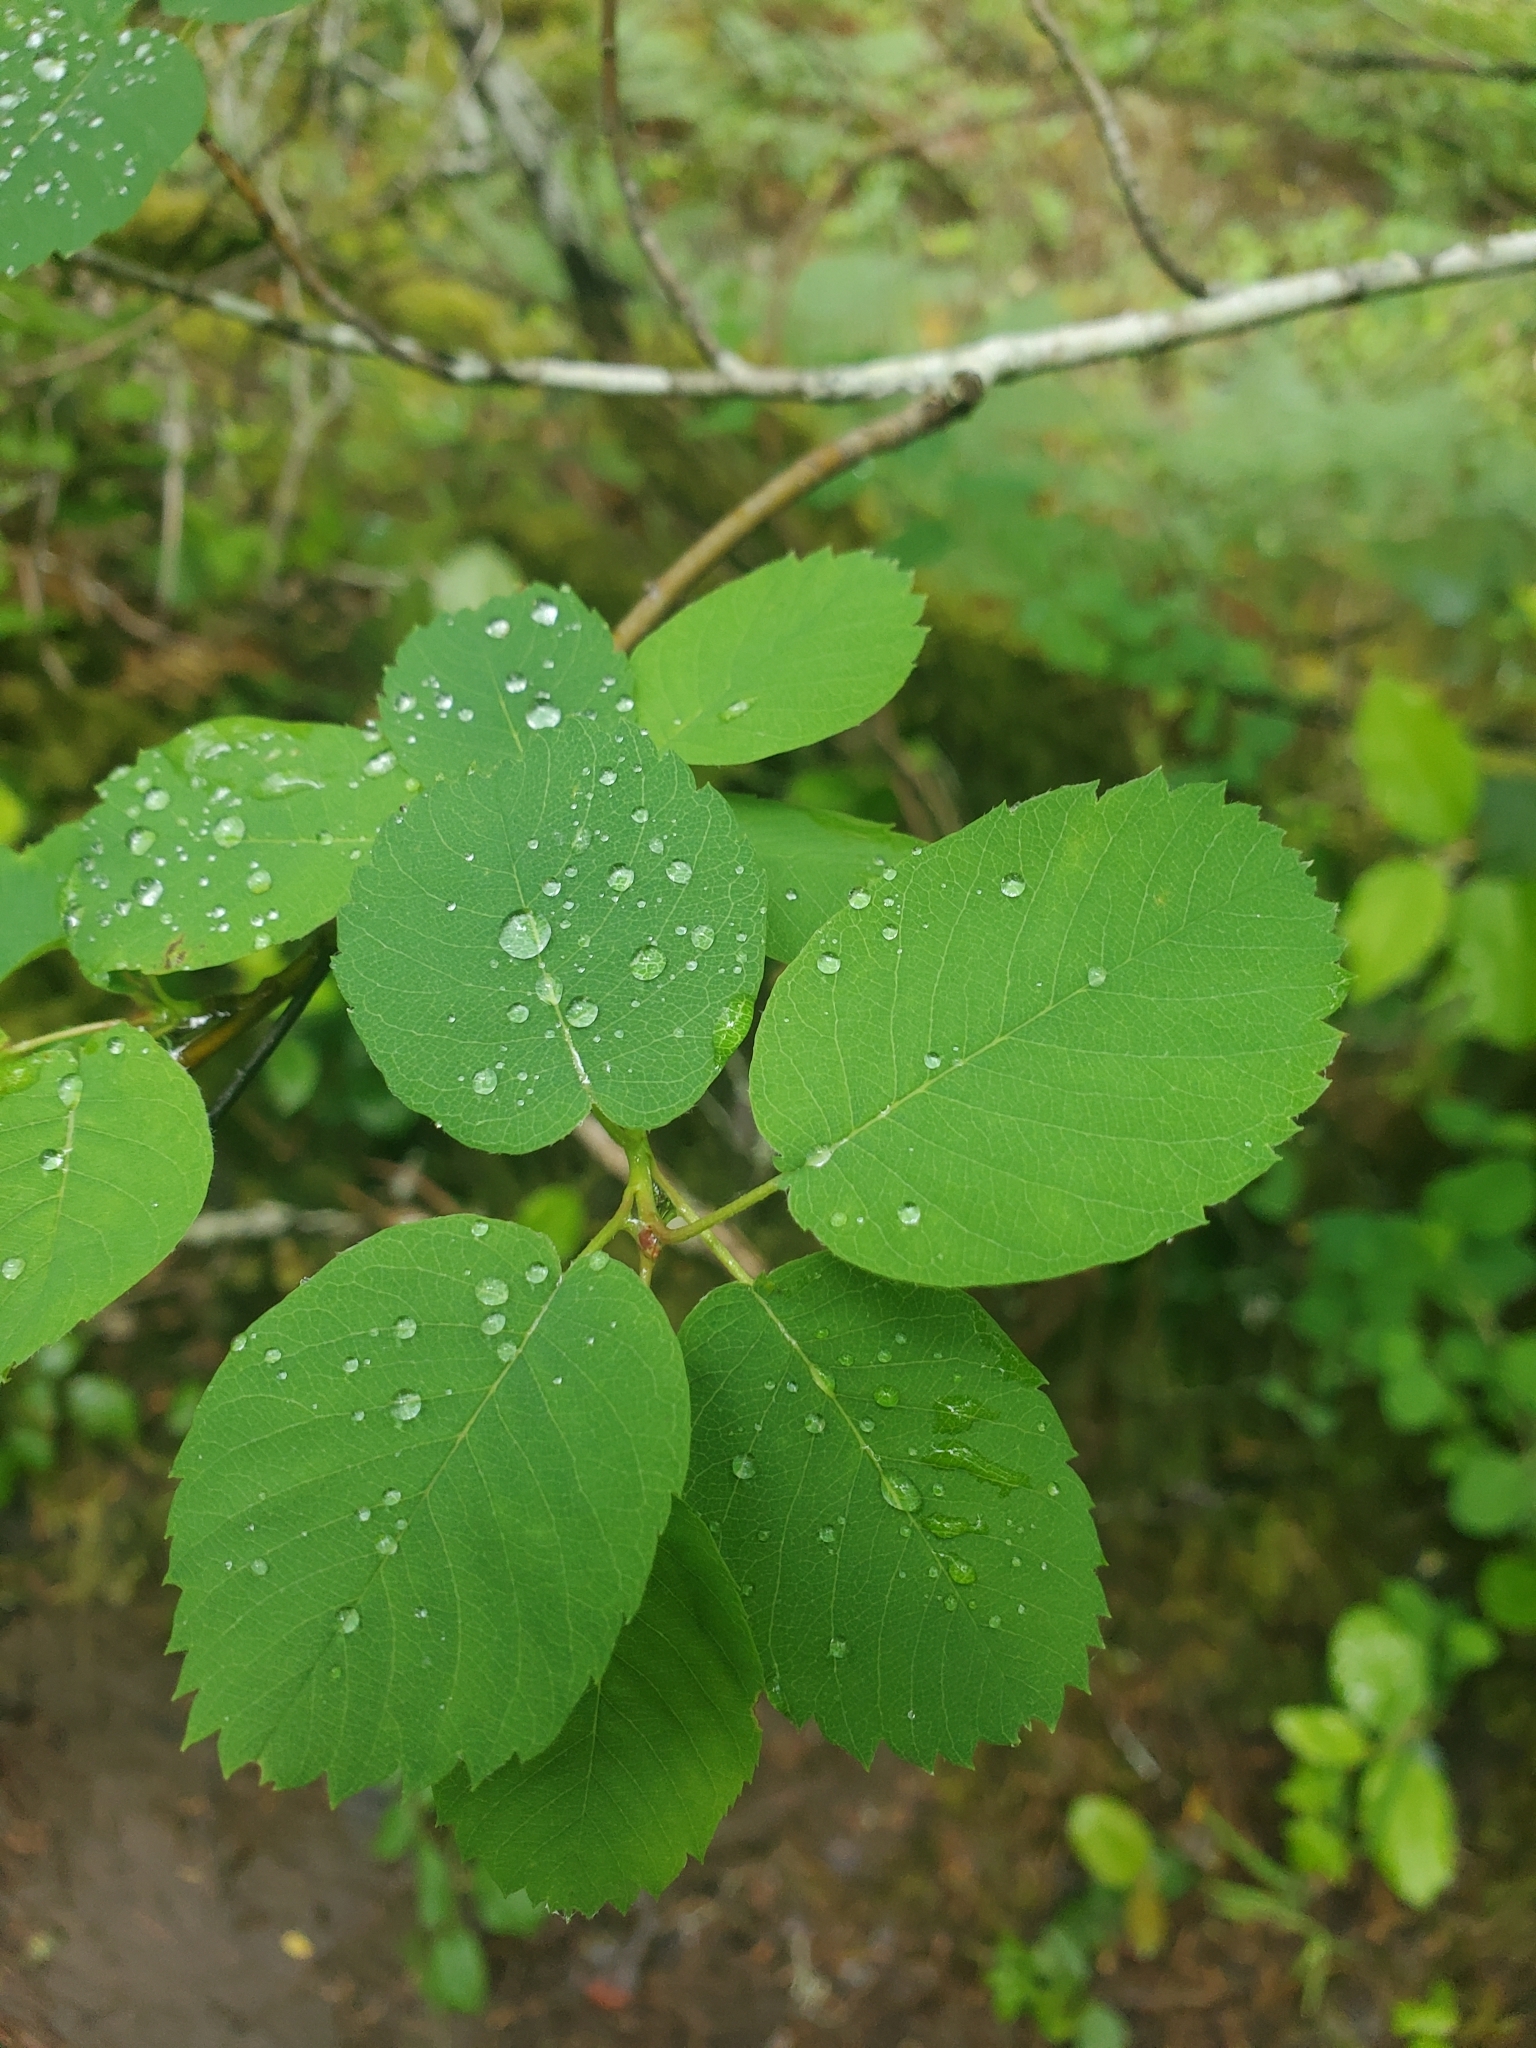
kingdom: Plantae
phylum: Tracheophyta
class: Magnoliopsida
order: Rosales
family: Rosaceae
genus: Amelanchier
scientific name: Amelanchier alnifolia
